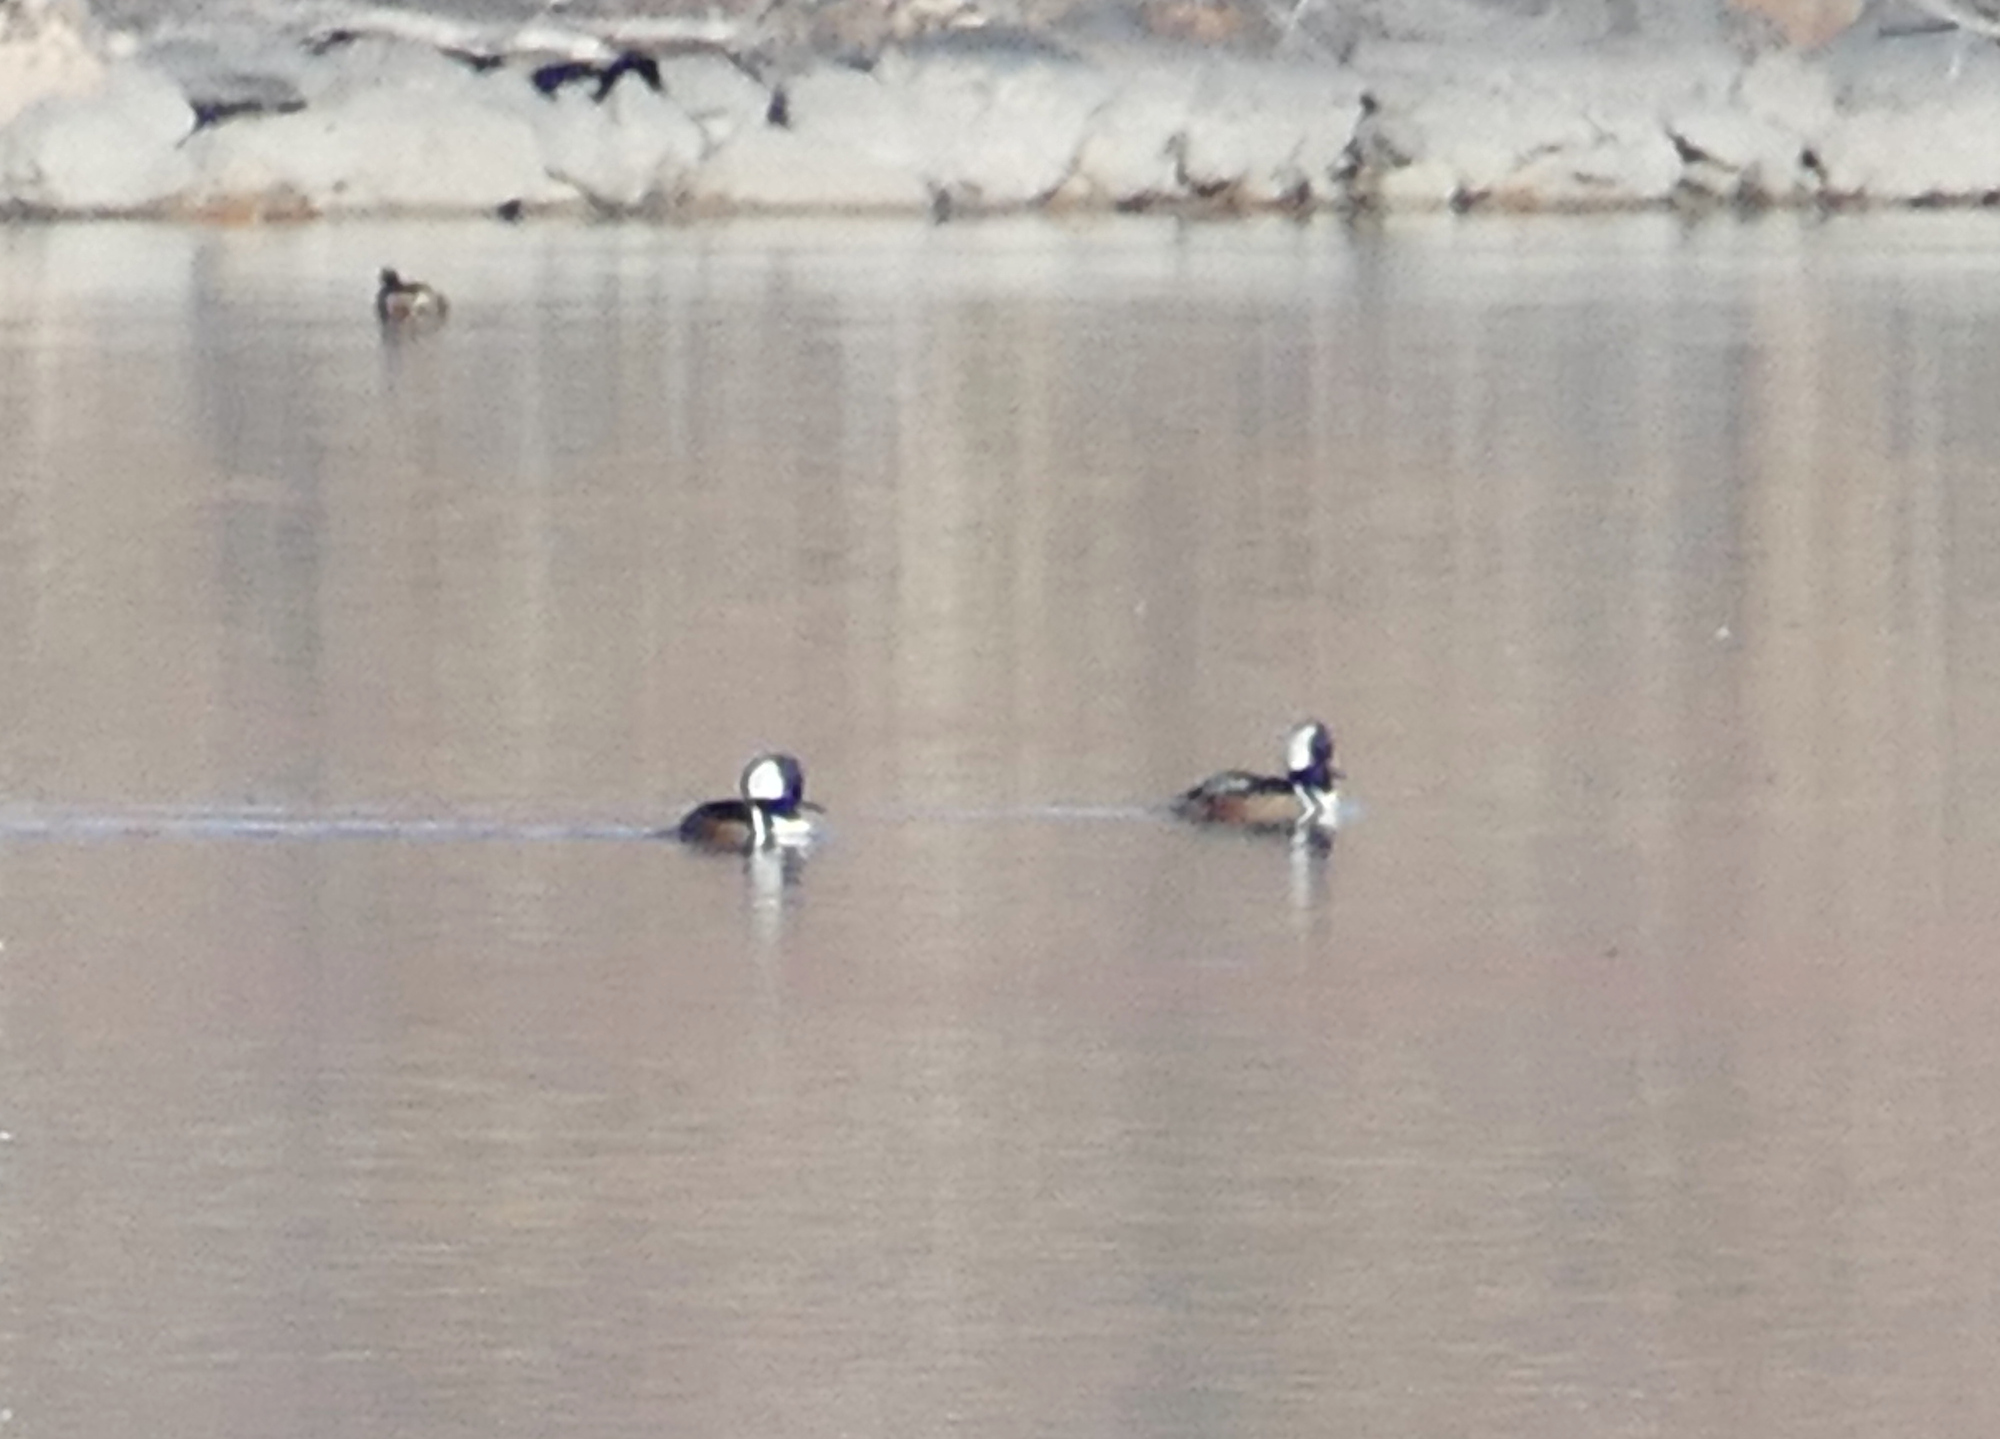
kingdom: Animalia
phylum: Chordata
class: Aves
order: Anseriformes
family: Anatidae
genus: Lophodytes
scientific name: Lophodytes cucullatus
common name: Hooded merganser
